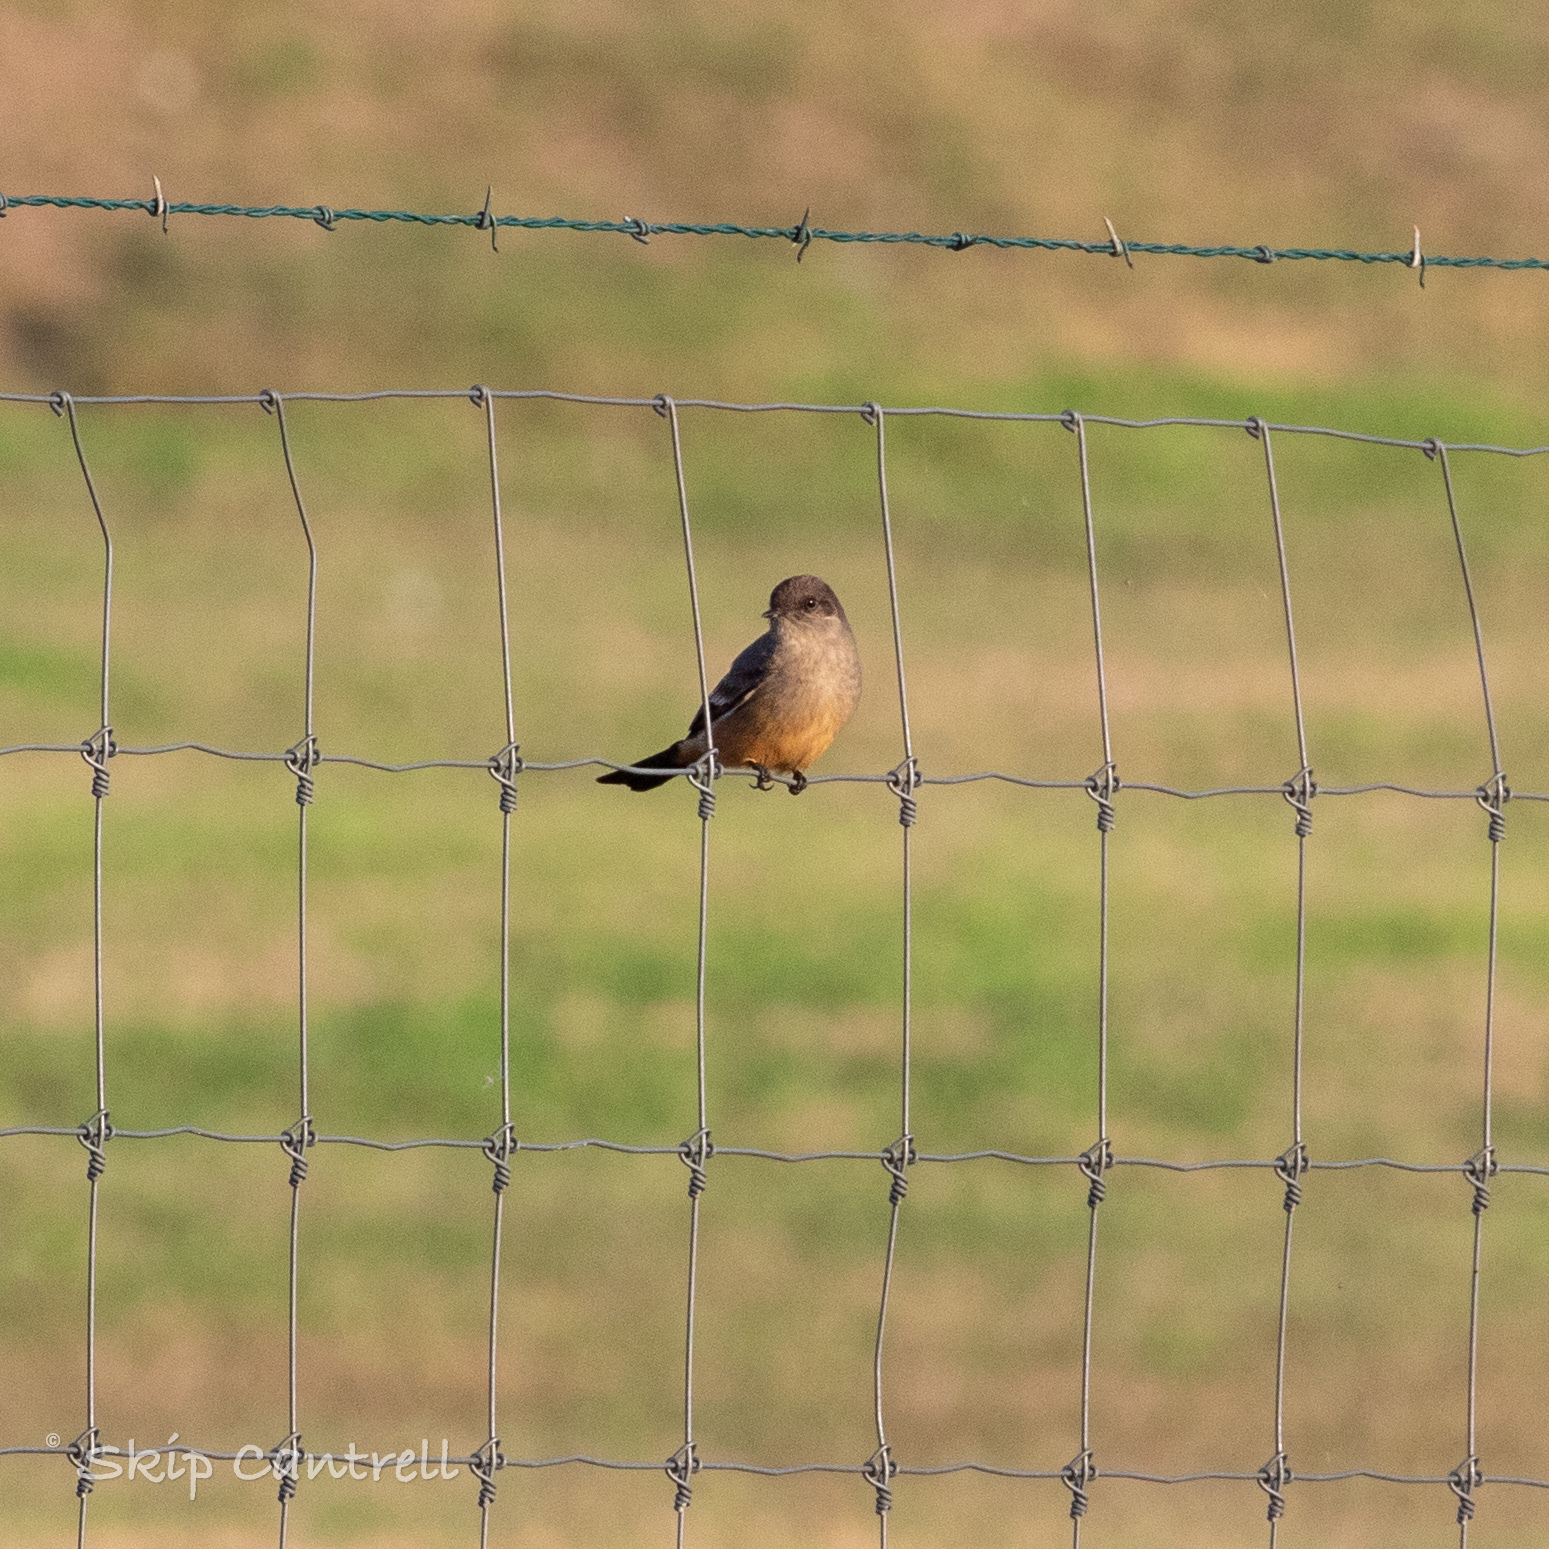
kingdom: Animalia
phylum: Chordata
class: Aves
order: Passeriformes
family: Tyrannidae
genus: Sayornis
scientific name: Sayornis saya
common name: Say's phoebe
